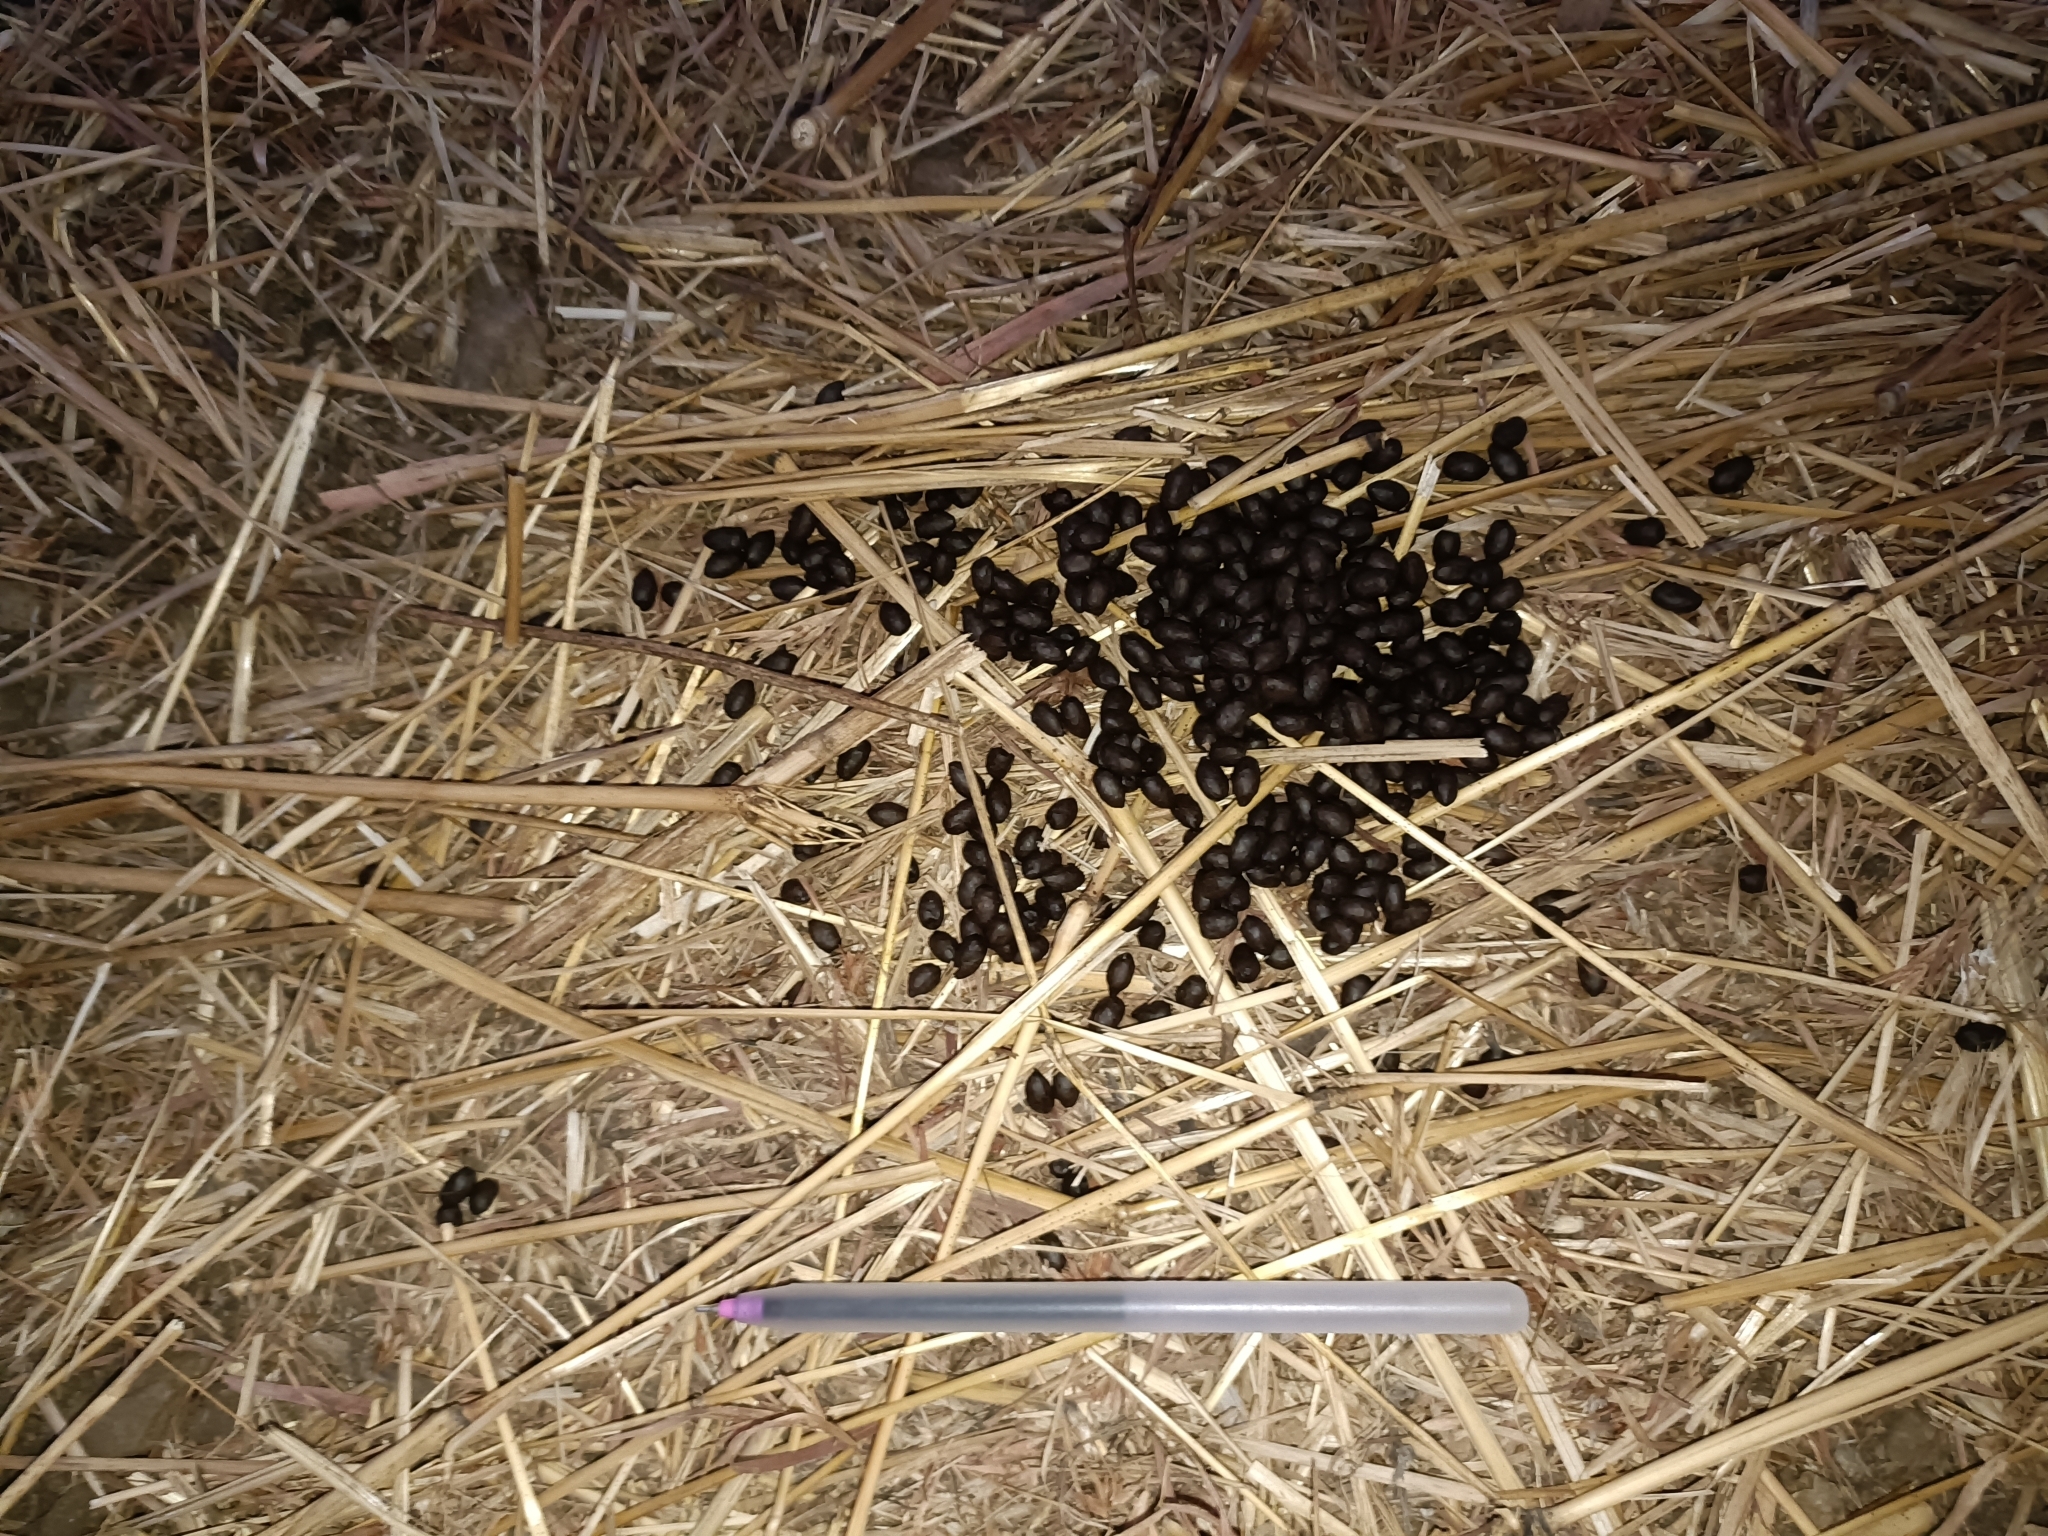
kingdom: Animalia
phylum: Chordata
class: Mammalia
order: Artiodactyla
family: Bovidae
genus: Gazella
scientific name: Gazella bennettii
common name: Indian gazelle
